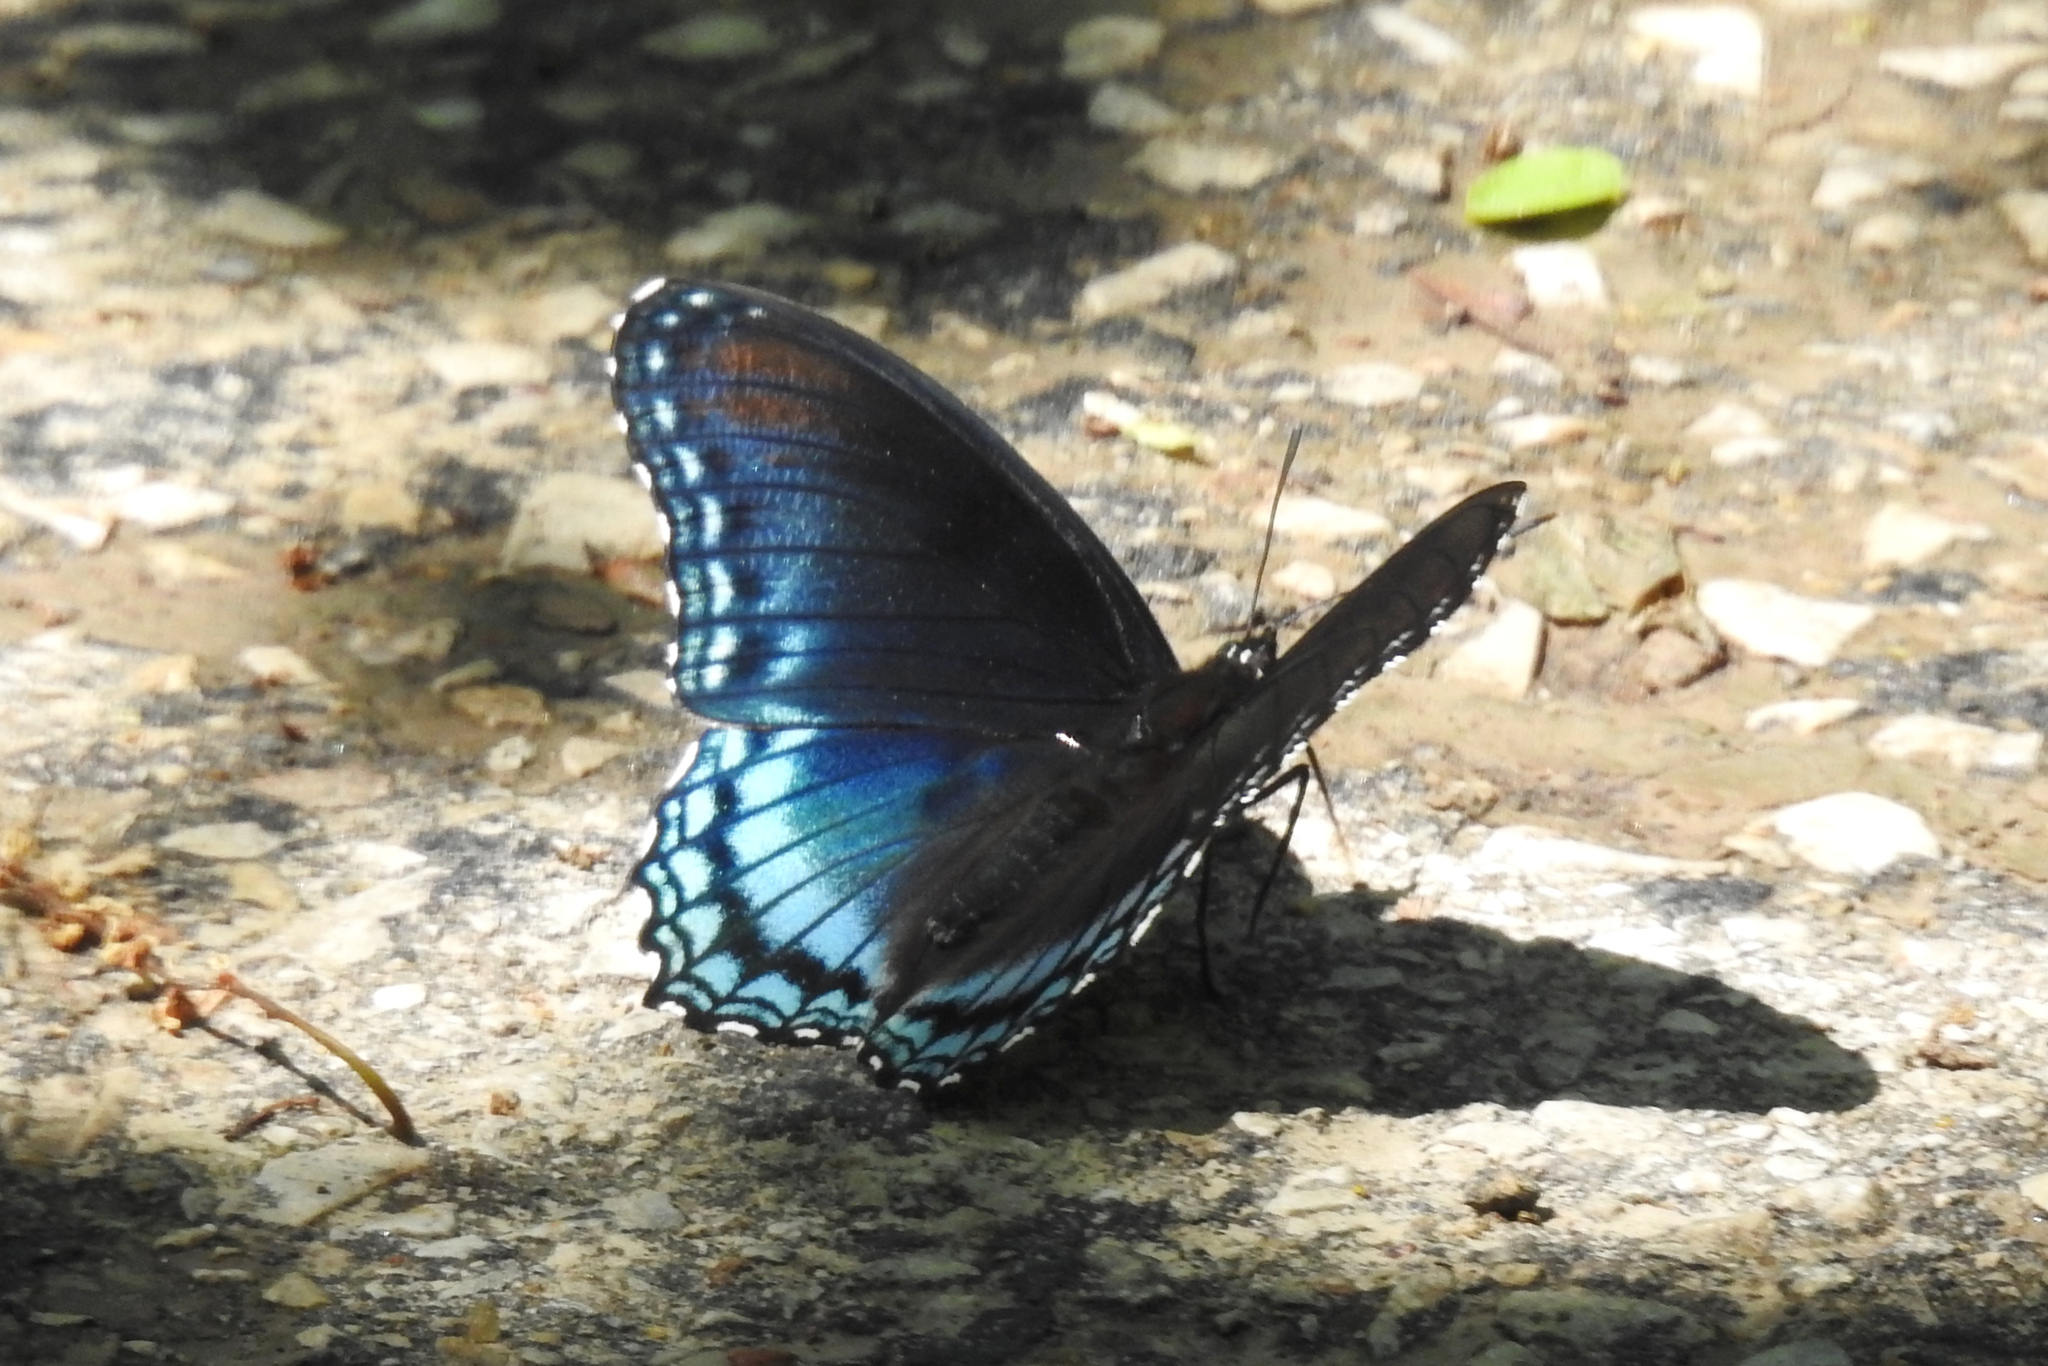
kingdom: Animalia
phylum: Arthropoda
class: Insecta
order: Lepidoptera
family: Nymphalidae
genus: Limenitis
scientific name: Limenitis astyanax
